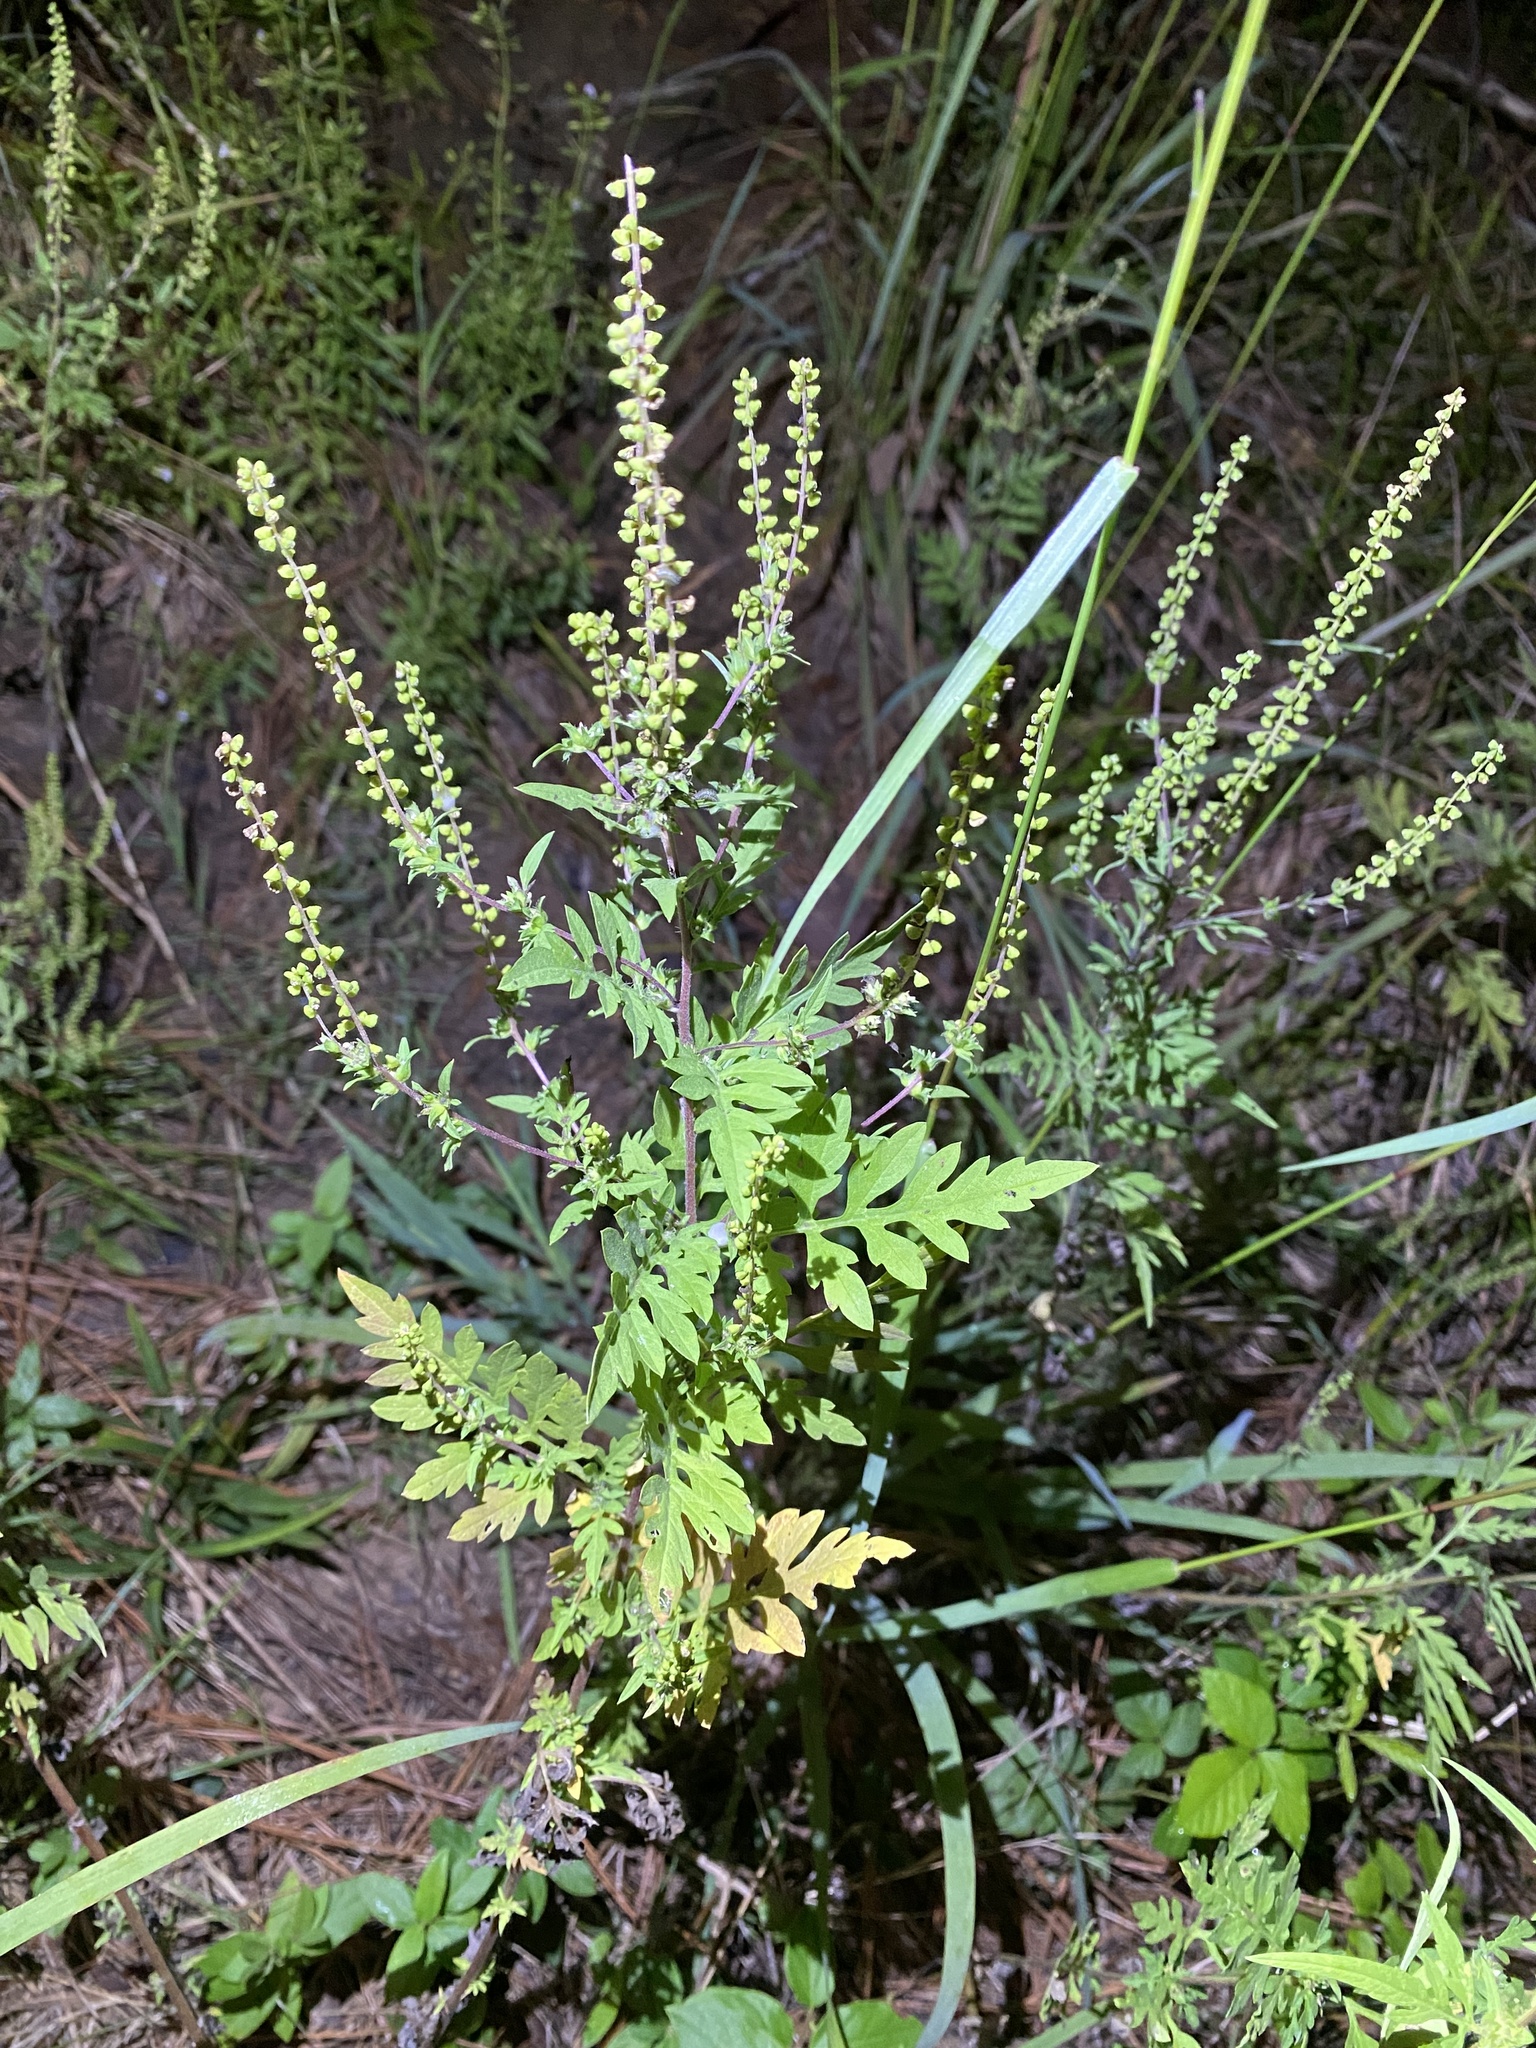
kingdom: Plantae
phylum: Tracheophyta
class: Magnoliopsida
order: Asterales
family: Asteraceae
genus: Ambrosia
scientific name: Ambrosia artemisiifolia
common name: Annual ragweed
